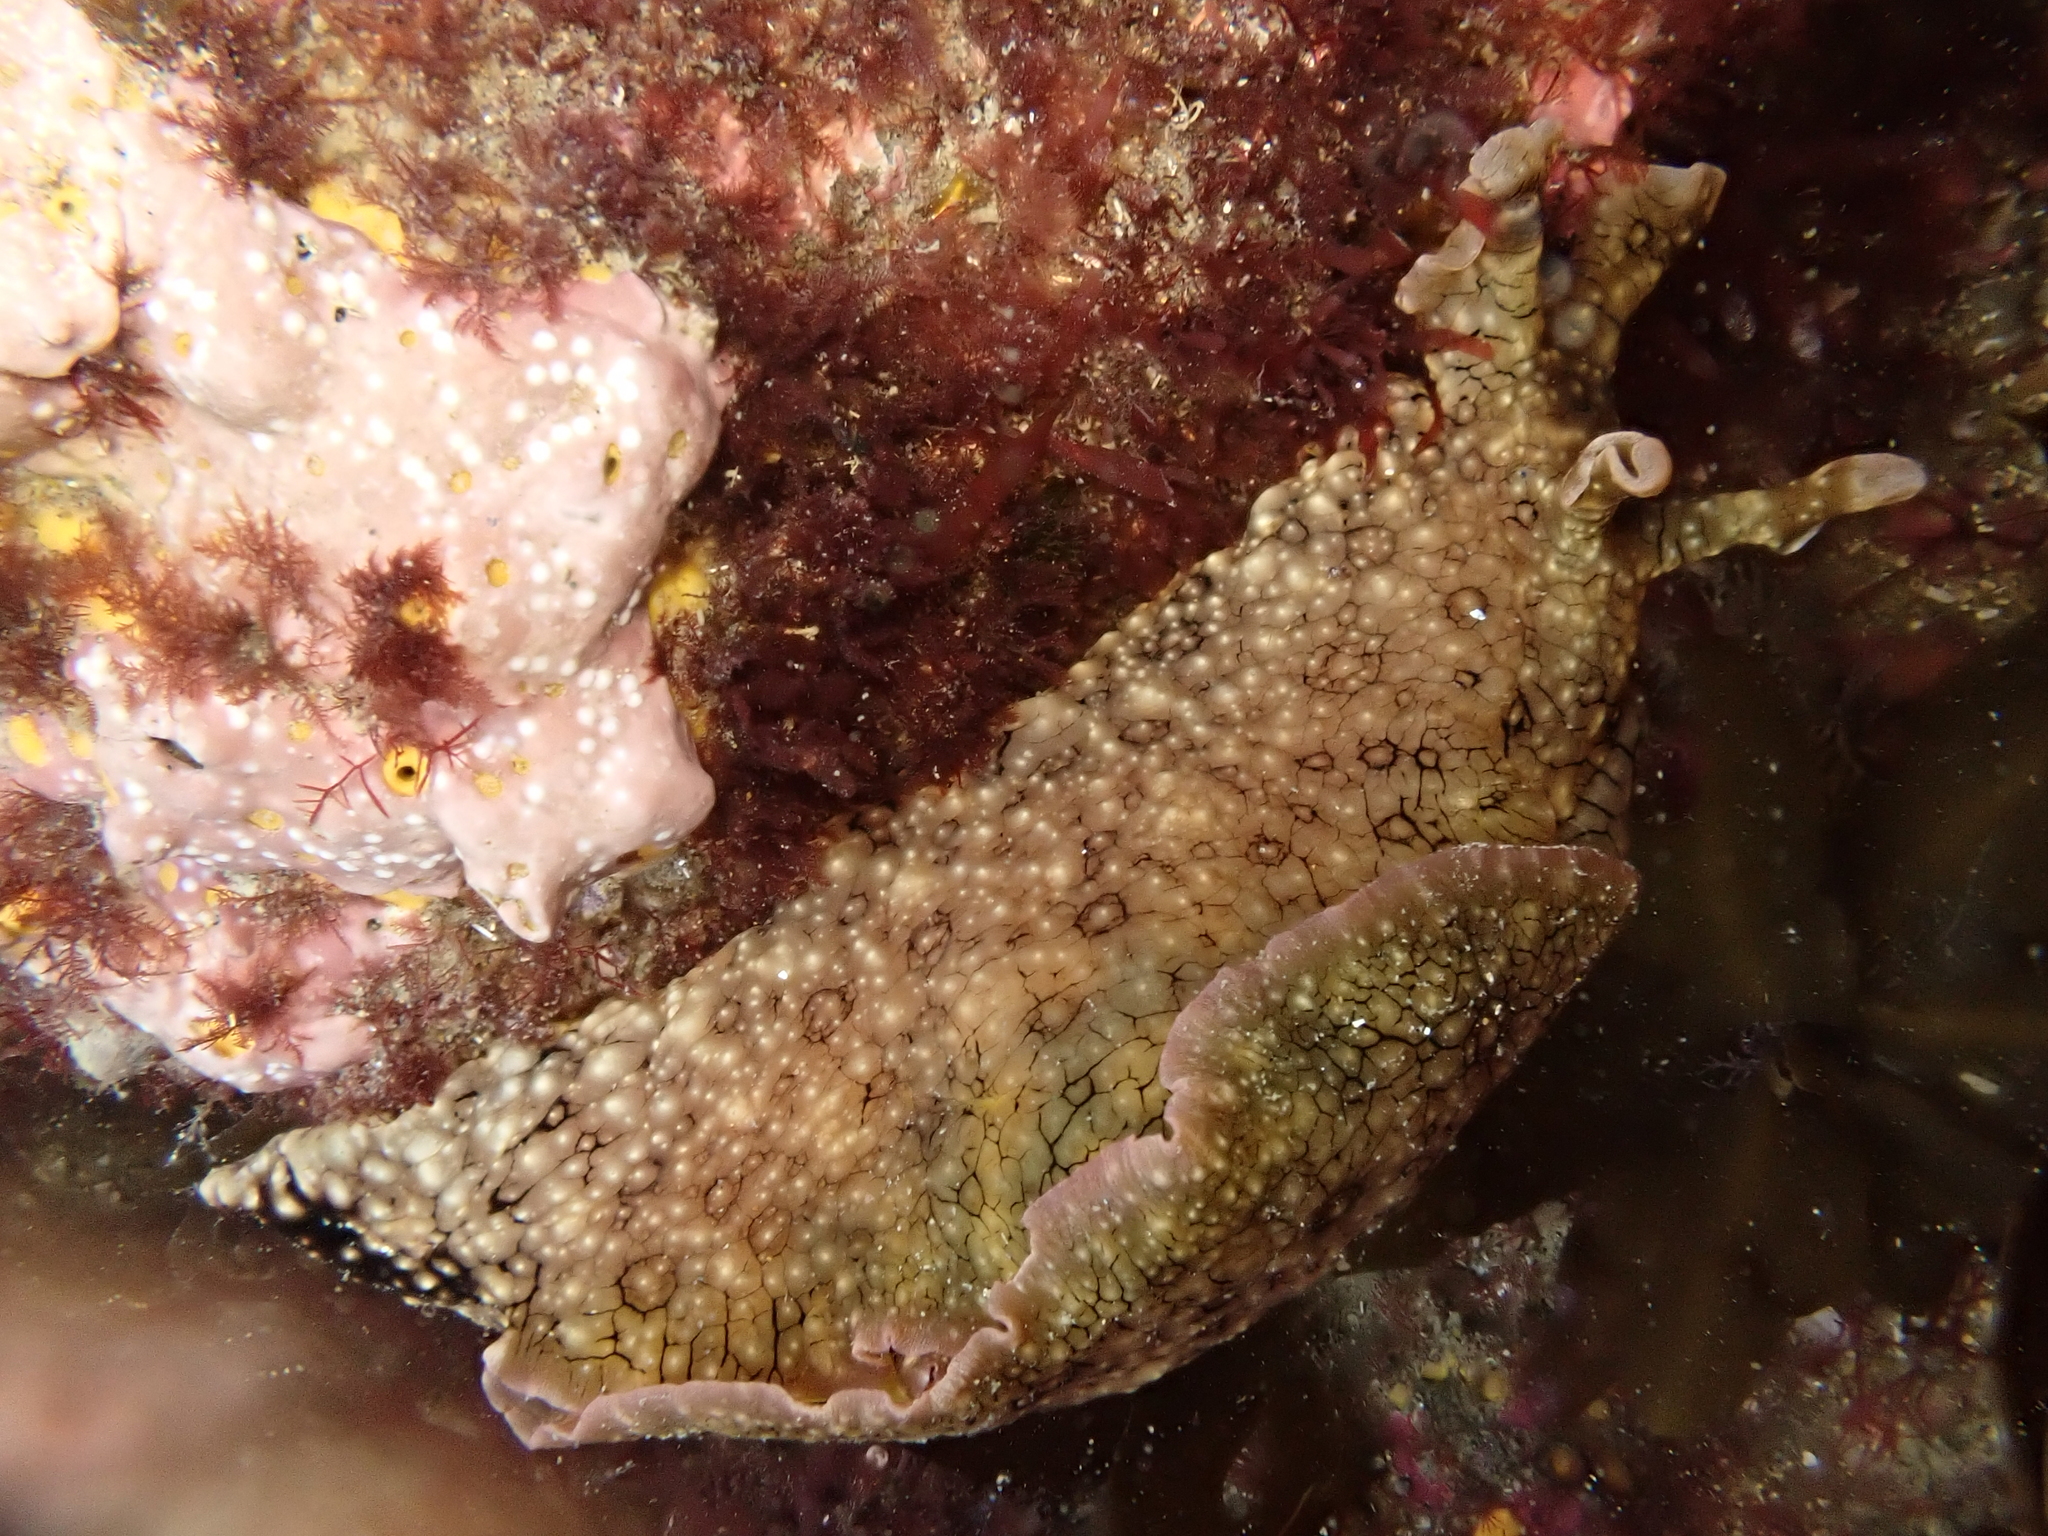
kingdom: Animalia
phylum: Mollusca
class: Gastropoda
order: Aplysiida
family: Aplysiidae
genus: Aplysia
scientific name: Aplysia argus
